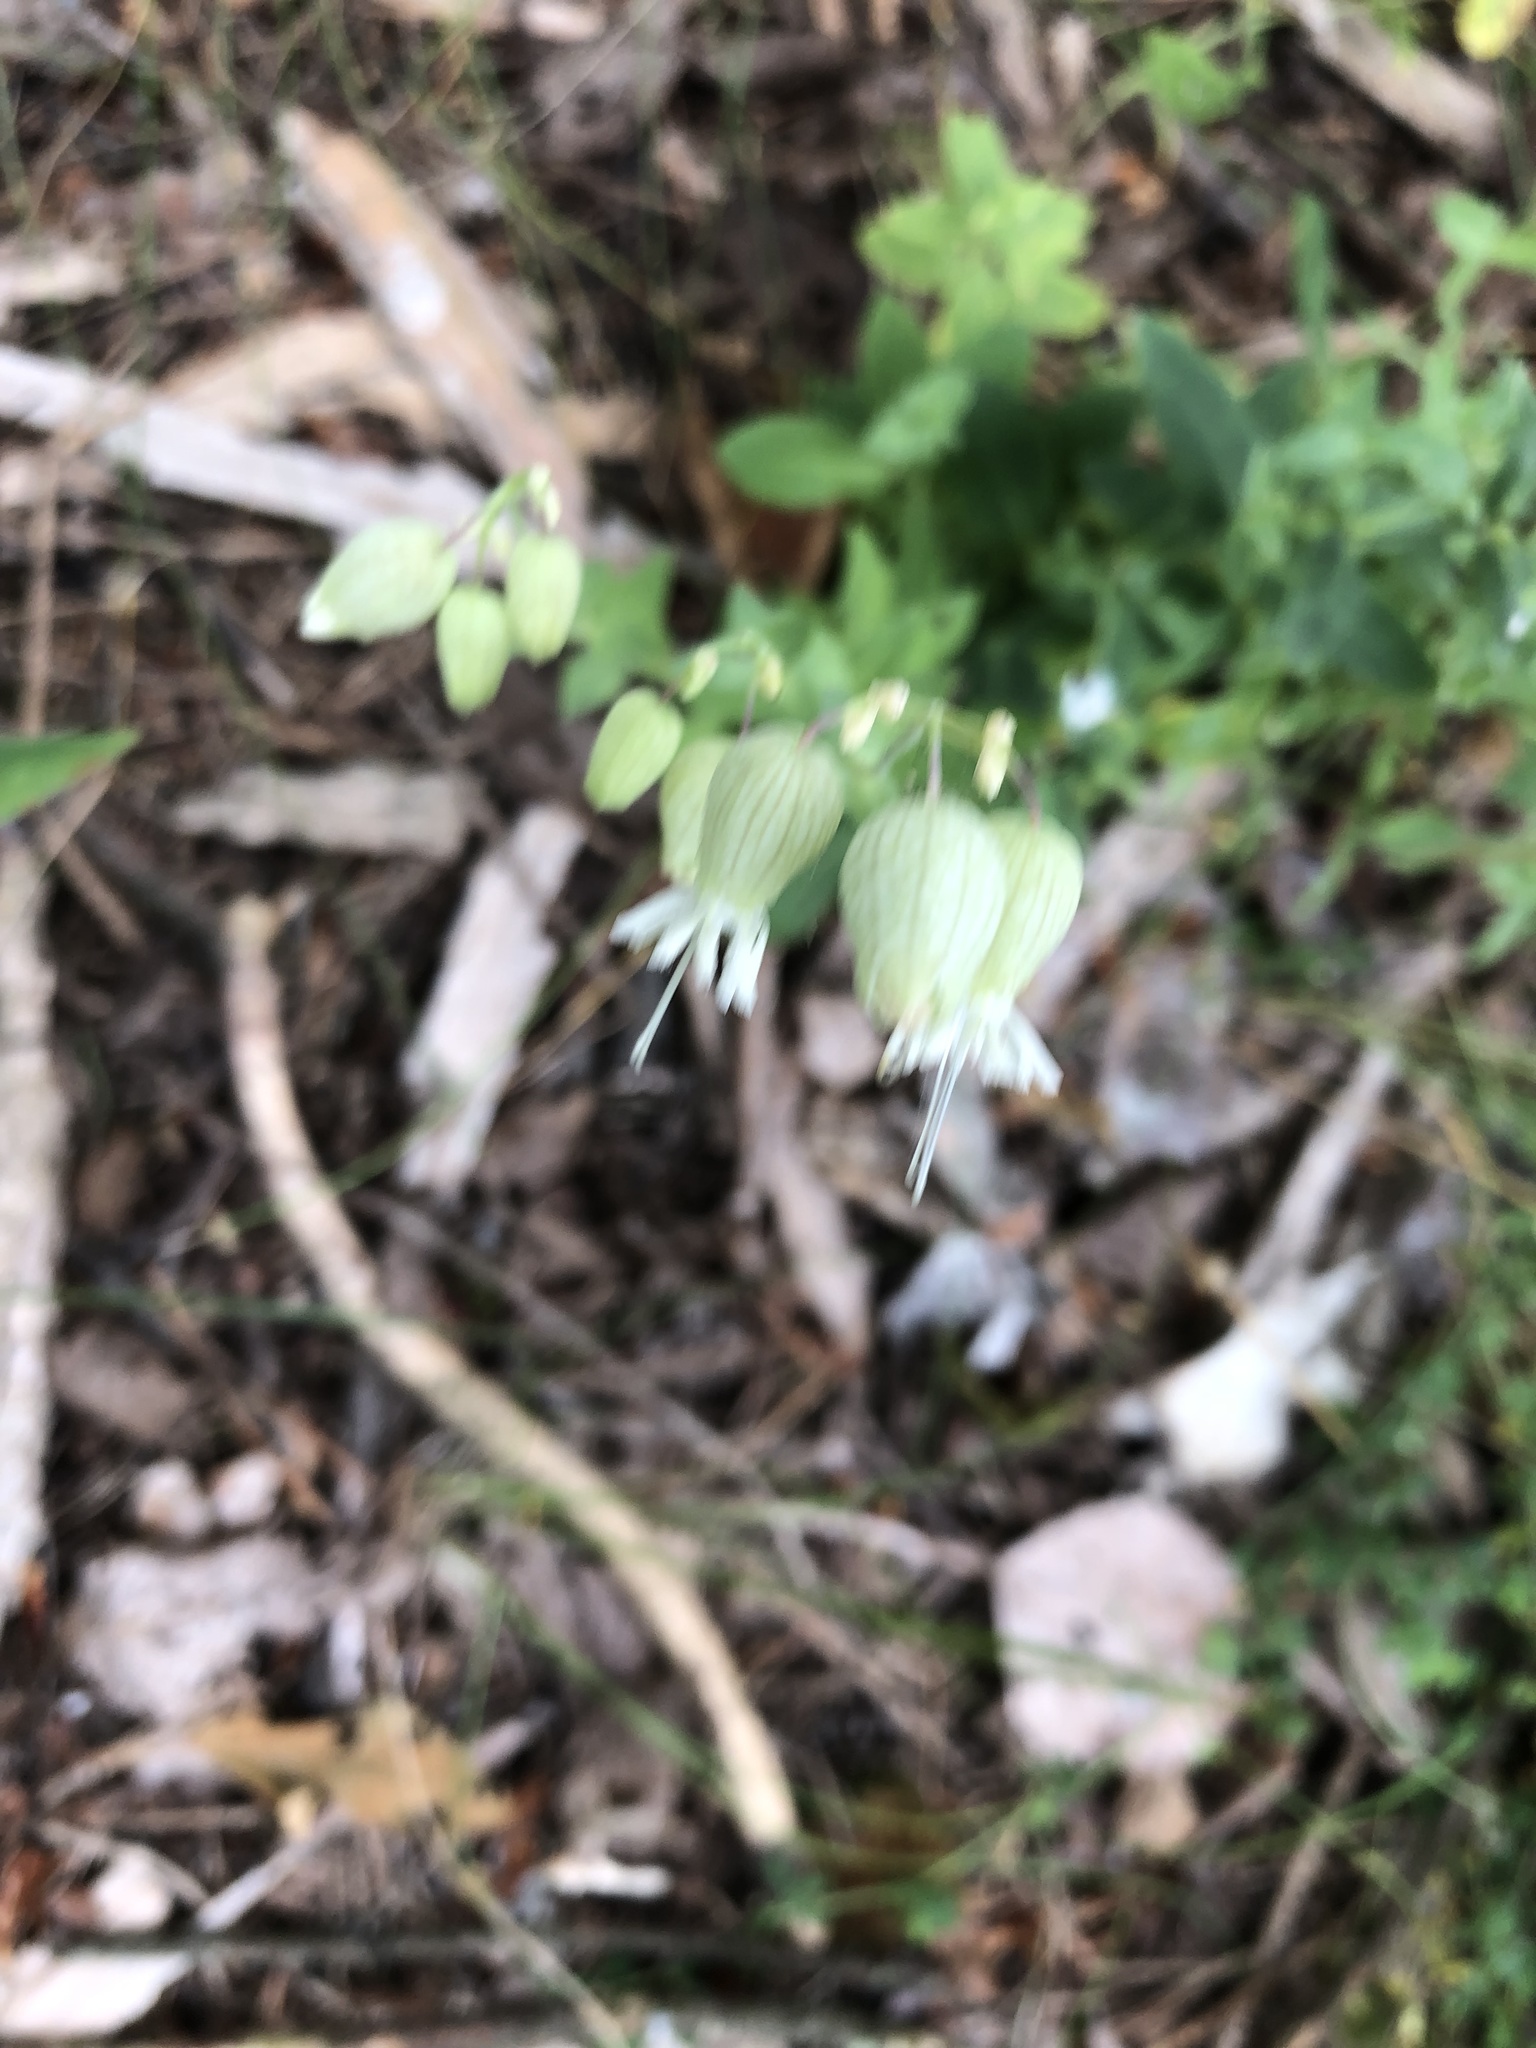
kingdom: Plantae
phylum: Tracheophyta
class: Magnoliopsida
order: Caryophyllales
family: Caryophyllaceae
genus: Silene
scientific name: Silene vulgaris
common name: Bladder campion
